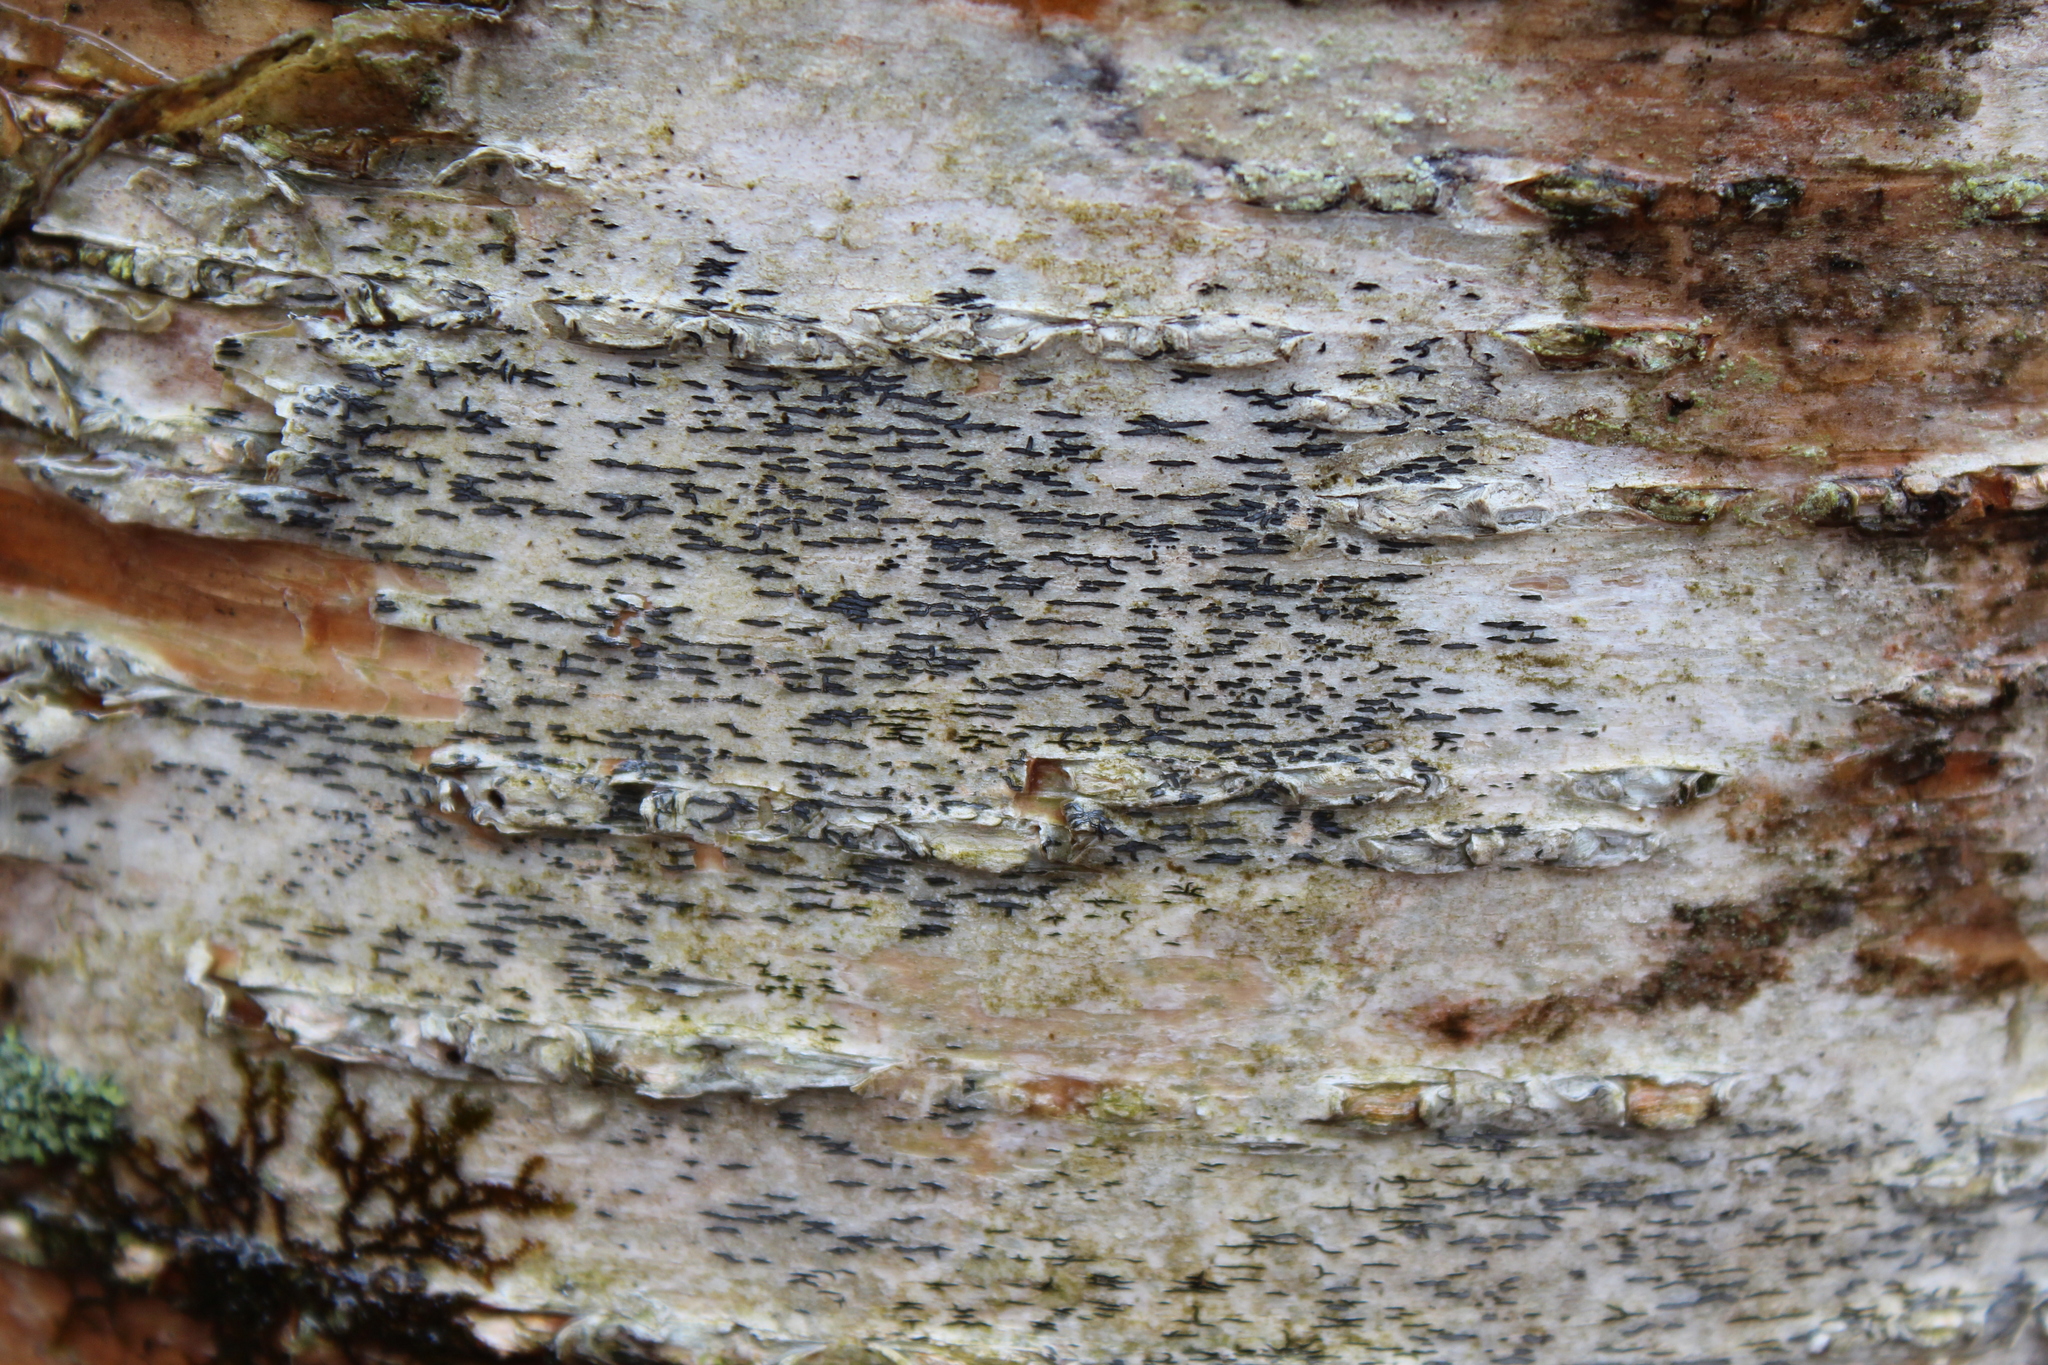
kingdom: Fungi
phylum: Ascomycota
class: Lecanoromycetes
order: Ostropales
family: Graphidaceae
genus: Graphis
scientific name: Graphis scripta
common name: Script lichen
